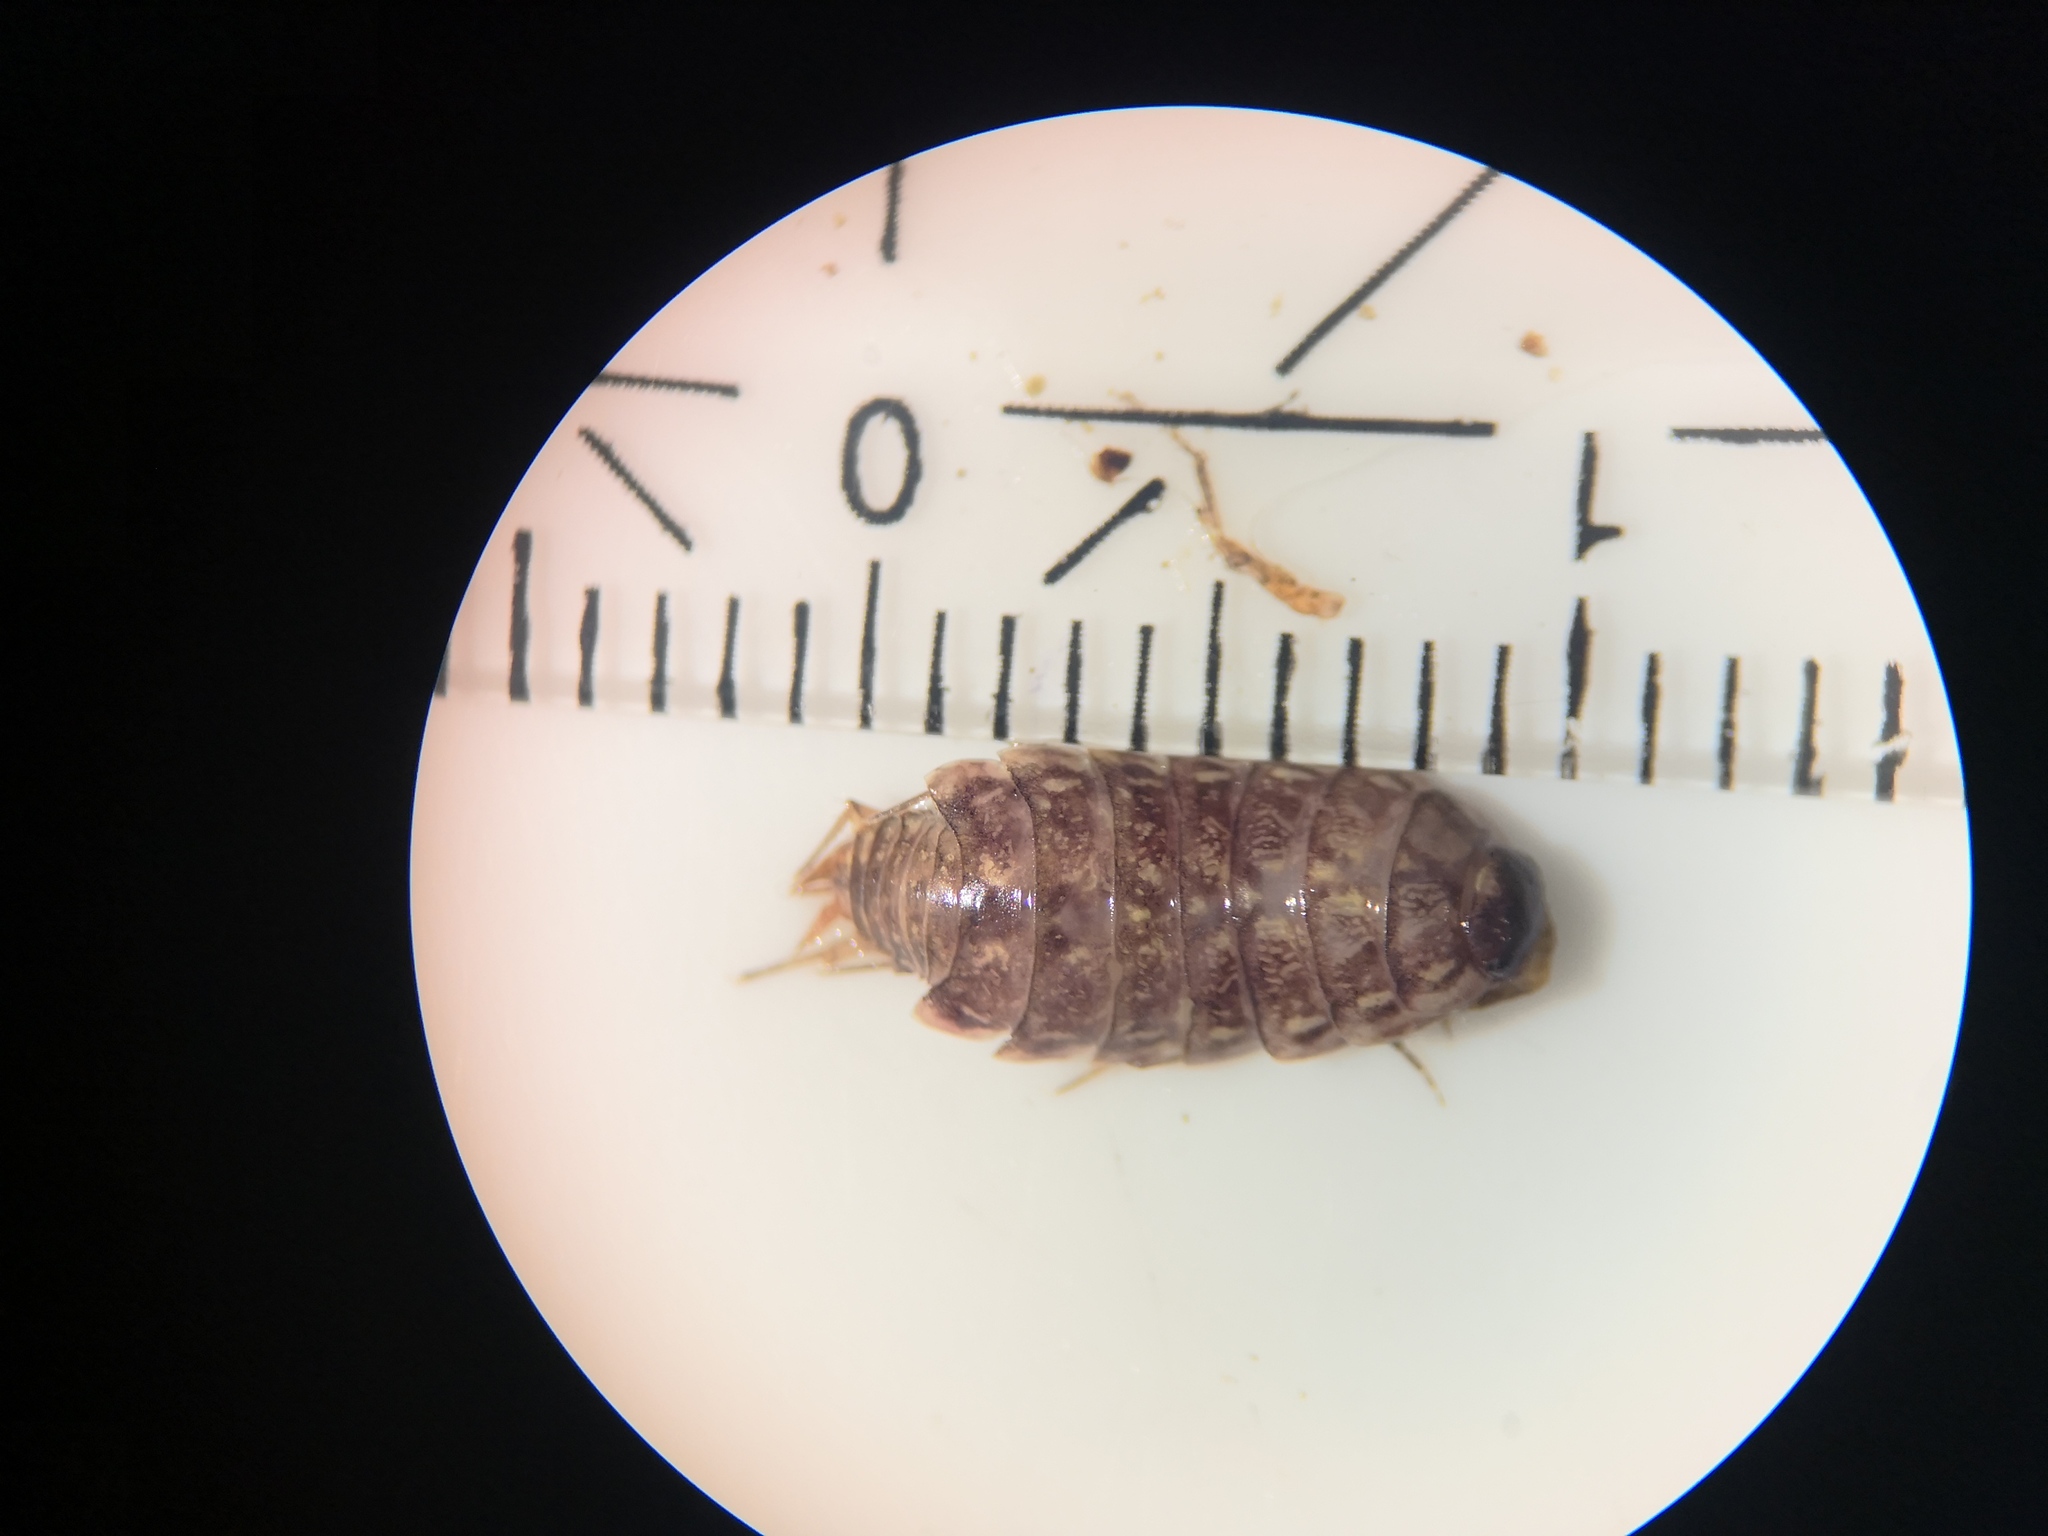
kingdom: Animalia
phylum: Arthropoda
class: Malacostraca
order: Isopoda
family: Philosciidae
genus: Philoscia
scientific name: Philoscia muscorum
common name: Common striped woodlouse
